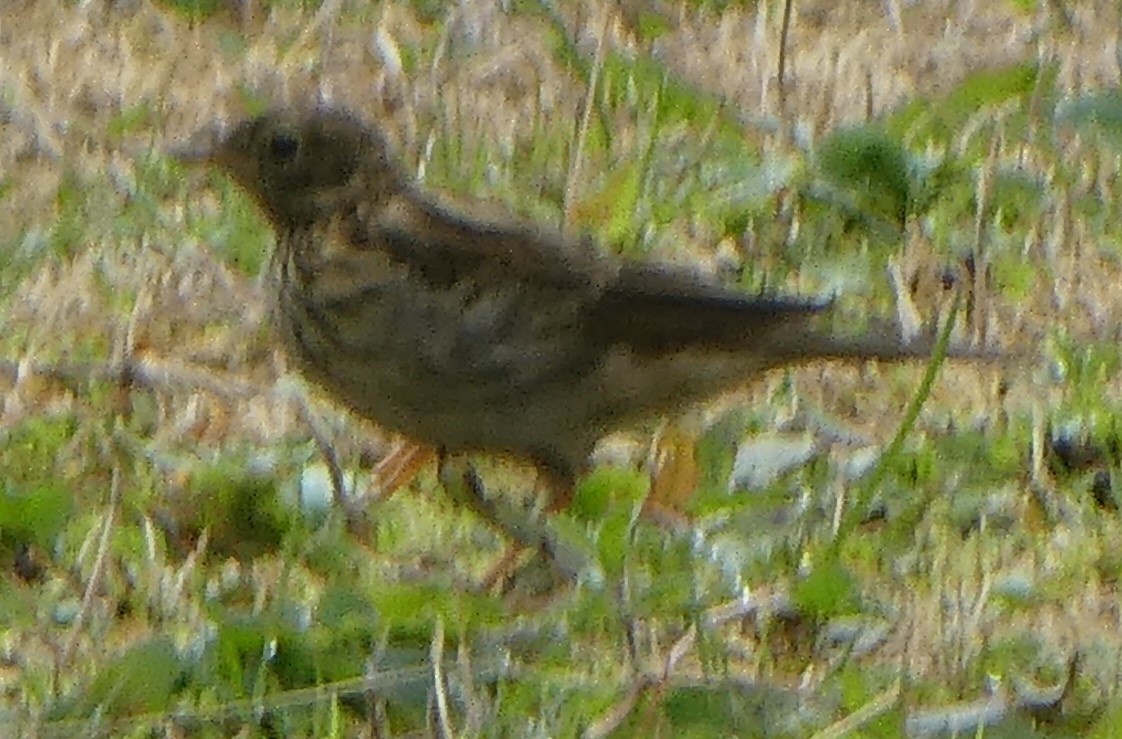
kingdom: Animalia
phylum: Chordata
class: Aves
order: Passeriformes
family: Motacillidae
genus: Anthus
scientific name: Anthus pratensis
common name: Meadow pipit
